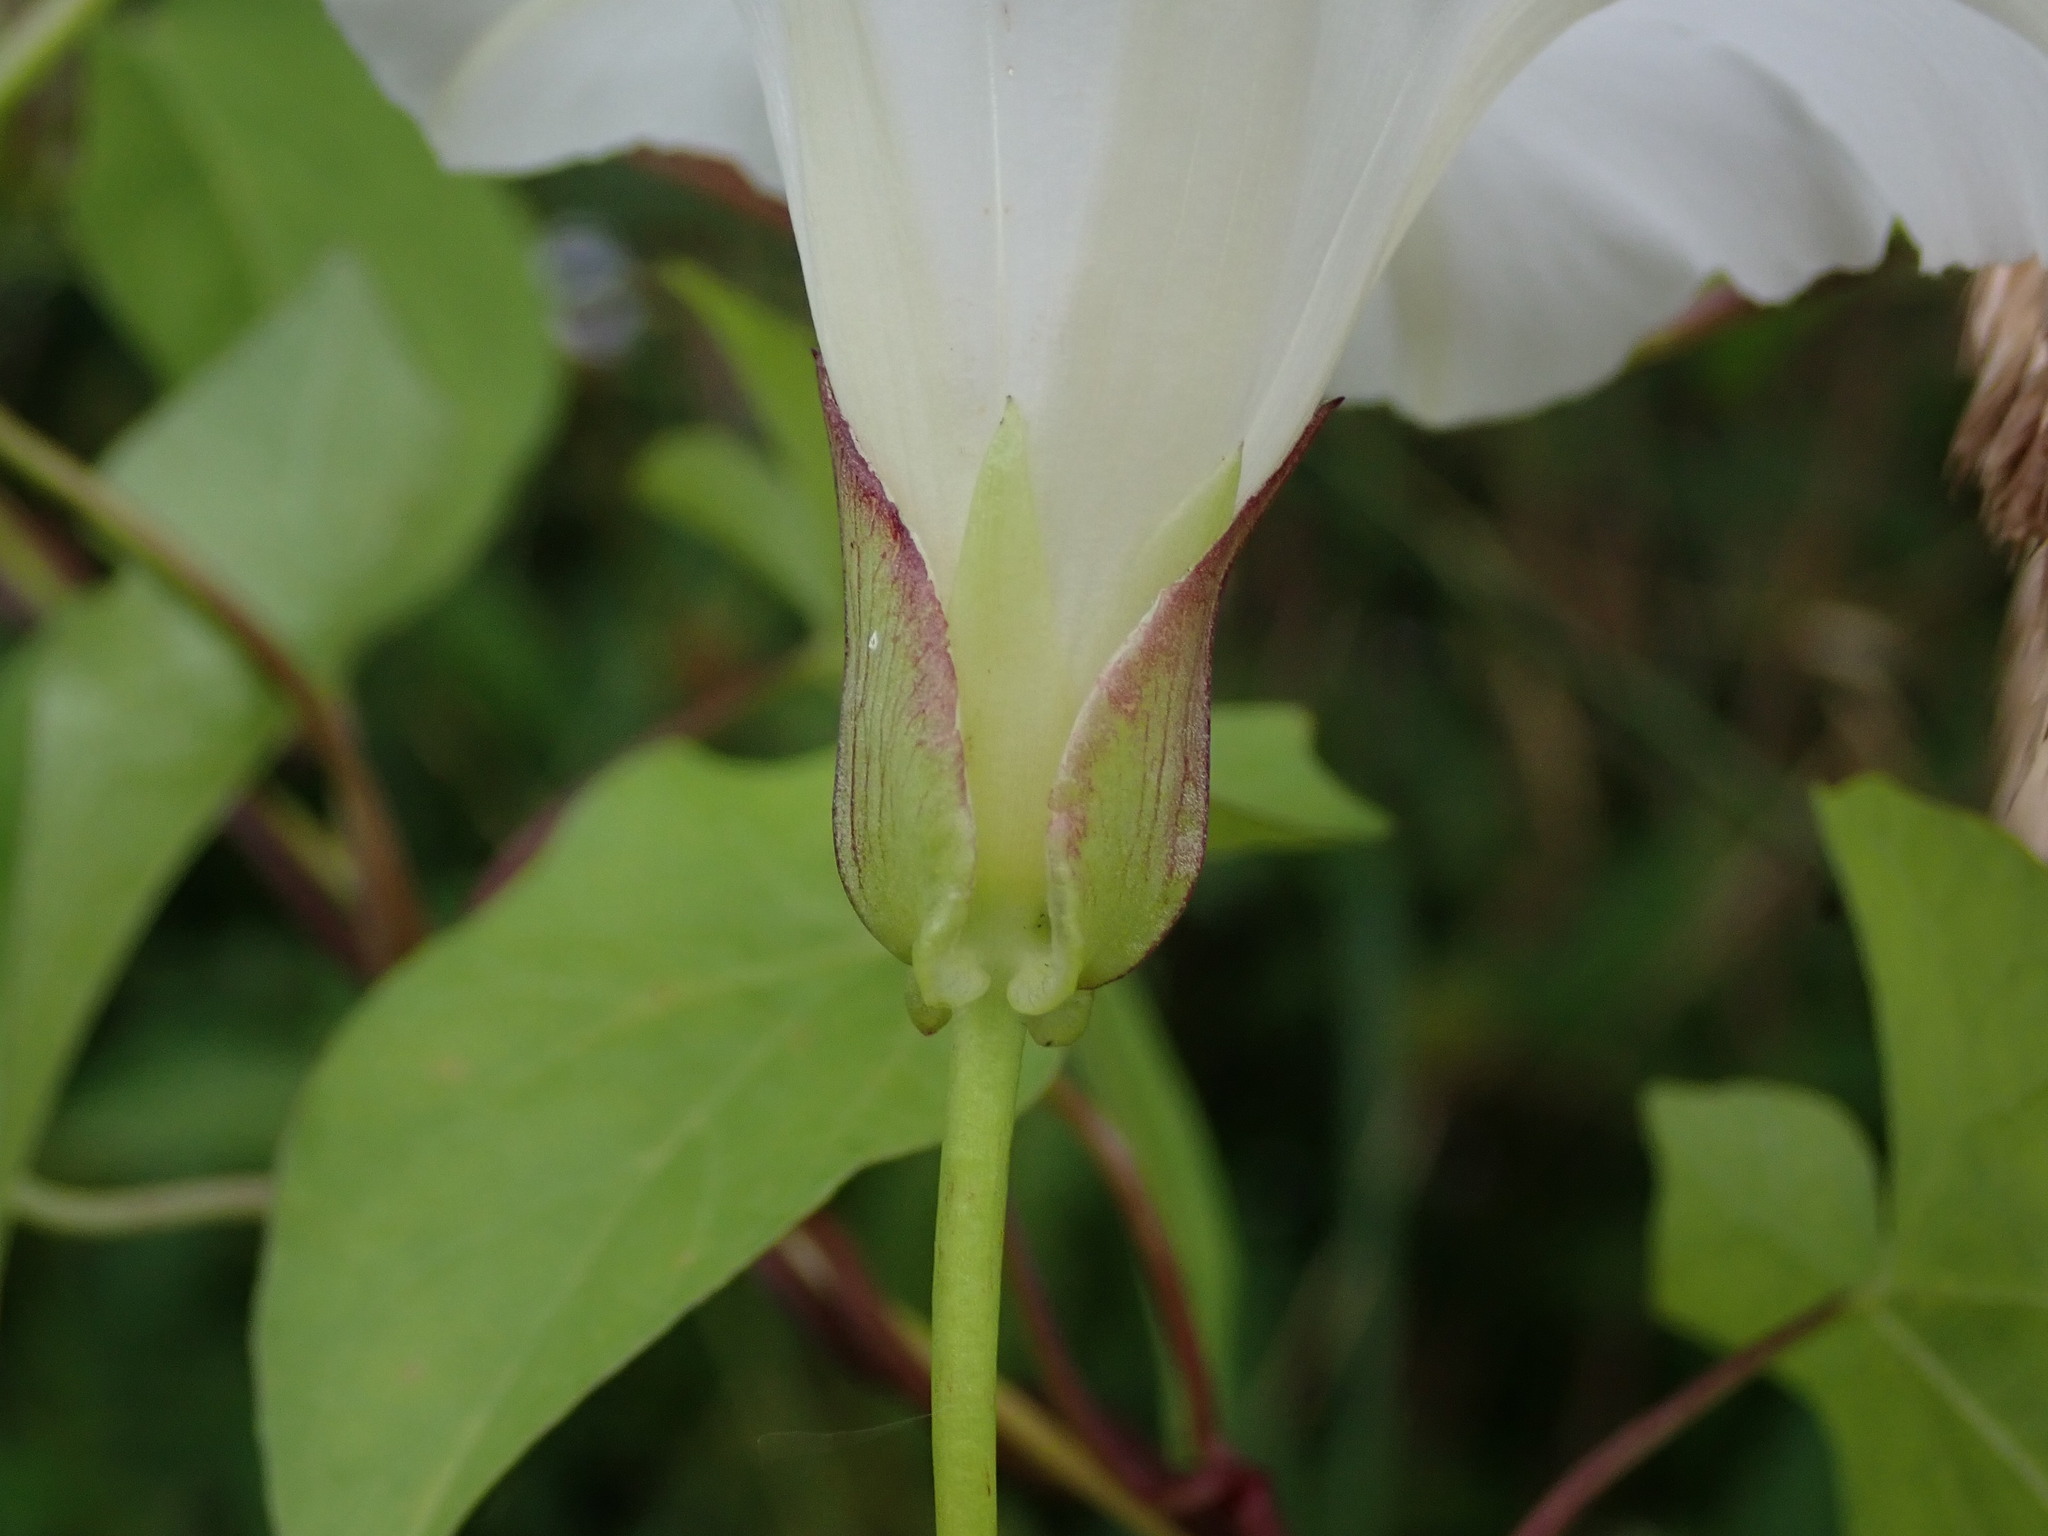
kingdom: Plantae
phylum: Tracheophyta
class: Magnoliopsida
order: Solanales
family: Convolvulaceae
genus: Calystegia
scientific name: Calystegia sepium
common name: Hedge bindweed
